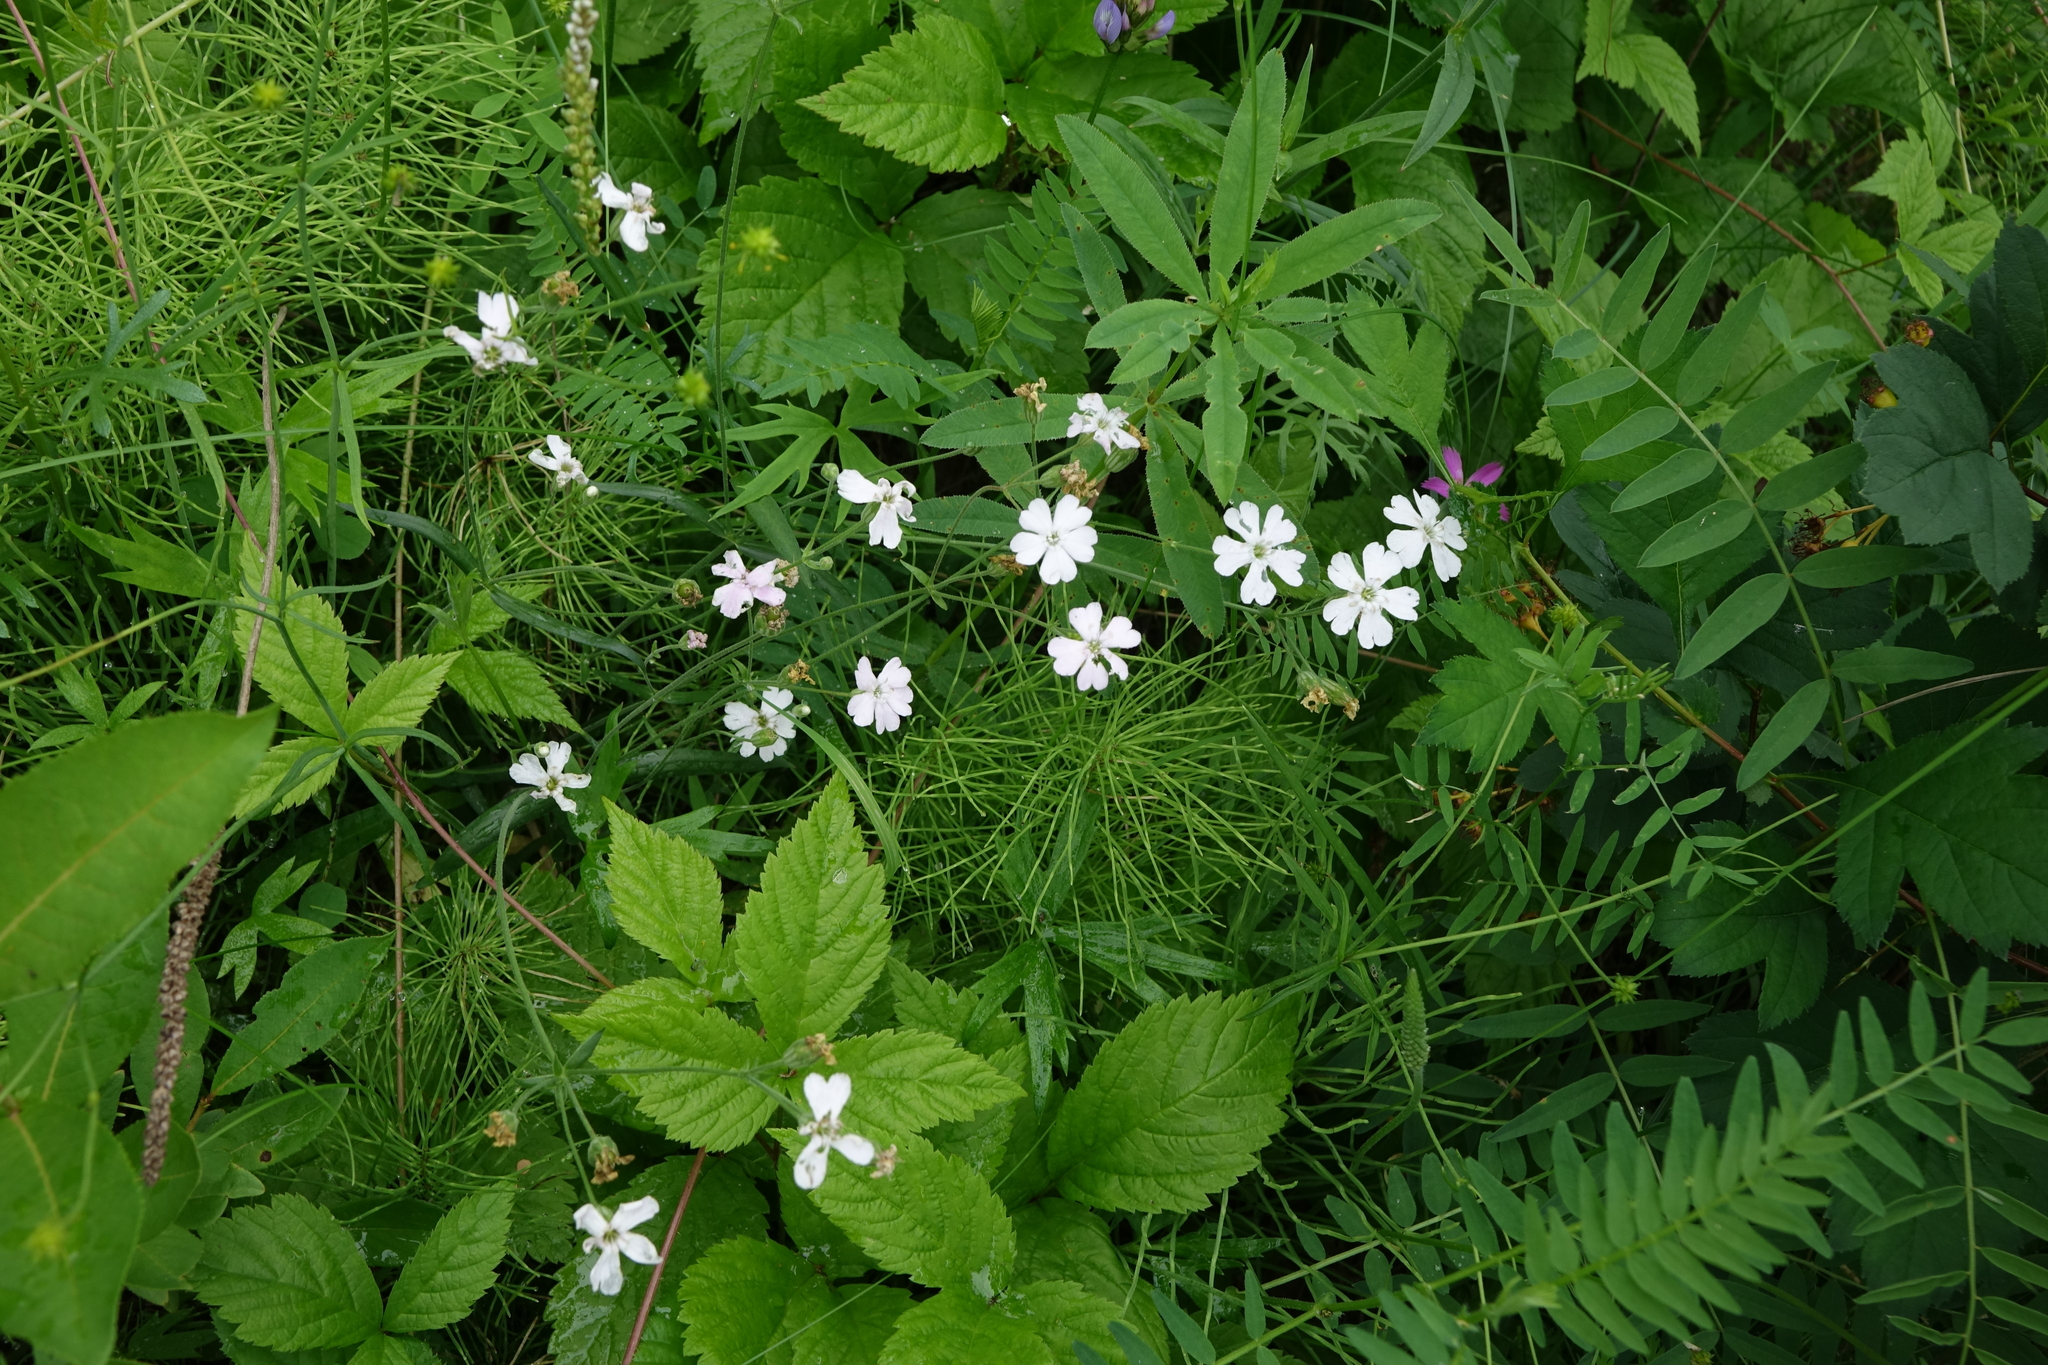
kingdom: Plantae
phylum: Tracheophyta
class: Magnoliopsida
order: Caryophyllales
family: Caryophyllaceae
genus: Silene
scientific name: Silene orientalimongolica
